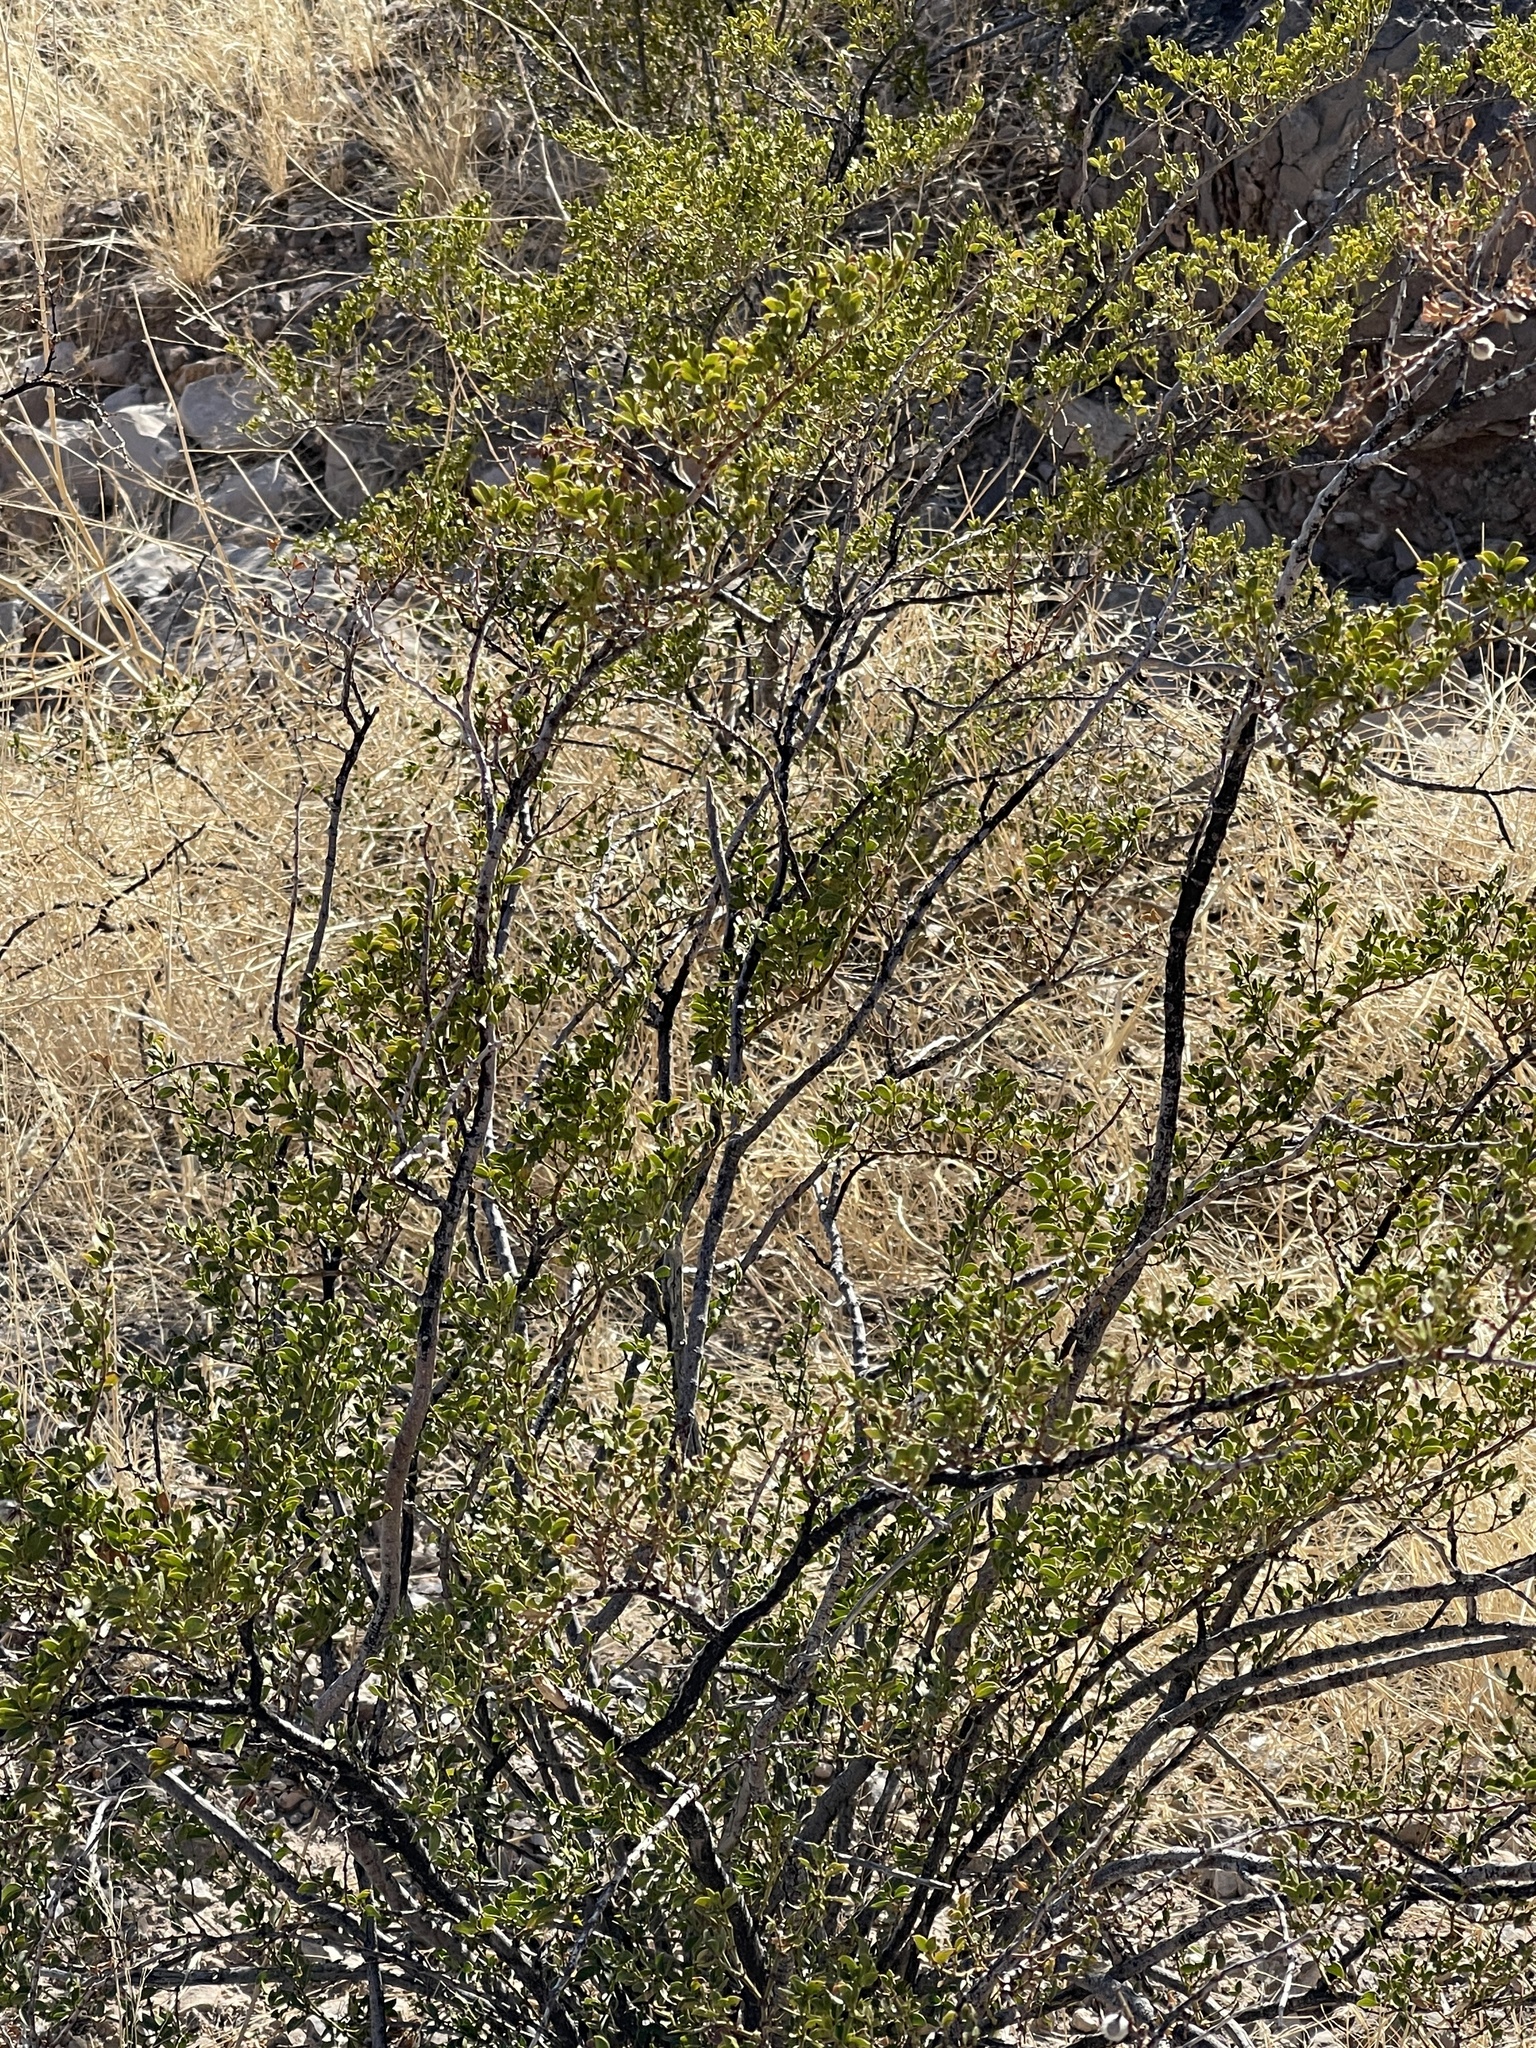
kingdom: Plantae
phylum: Tracheophyta
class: Magnoliopsida
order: Zygophyllales
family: Zygophyllaceae
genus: Larrea
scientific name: Larrea tridentata
